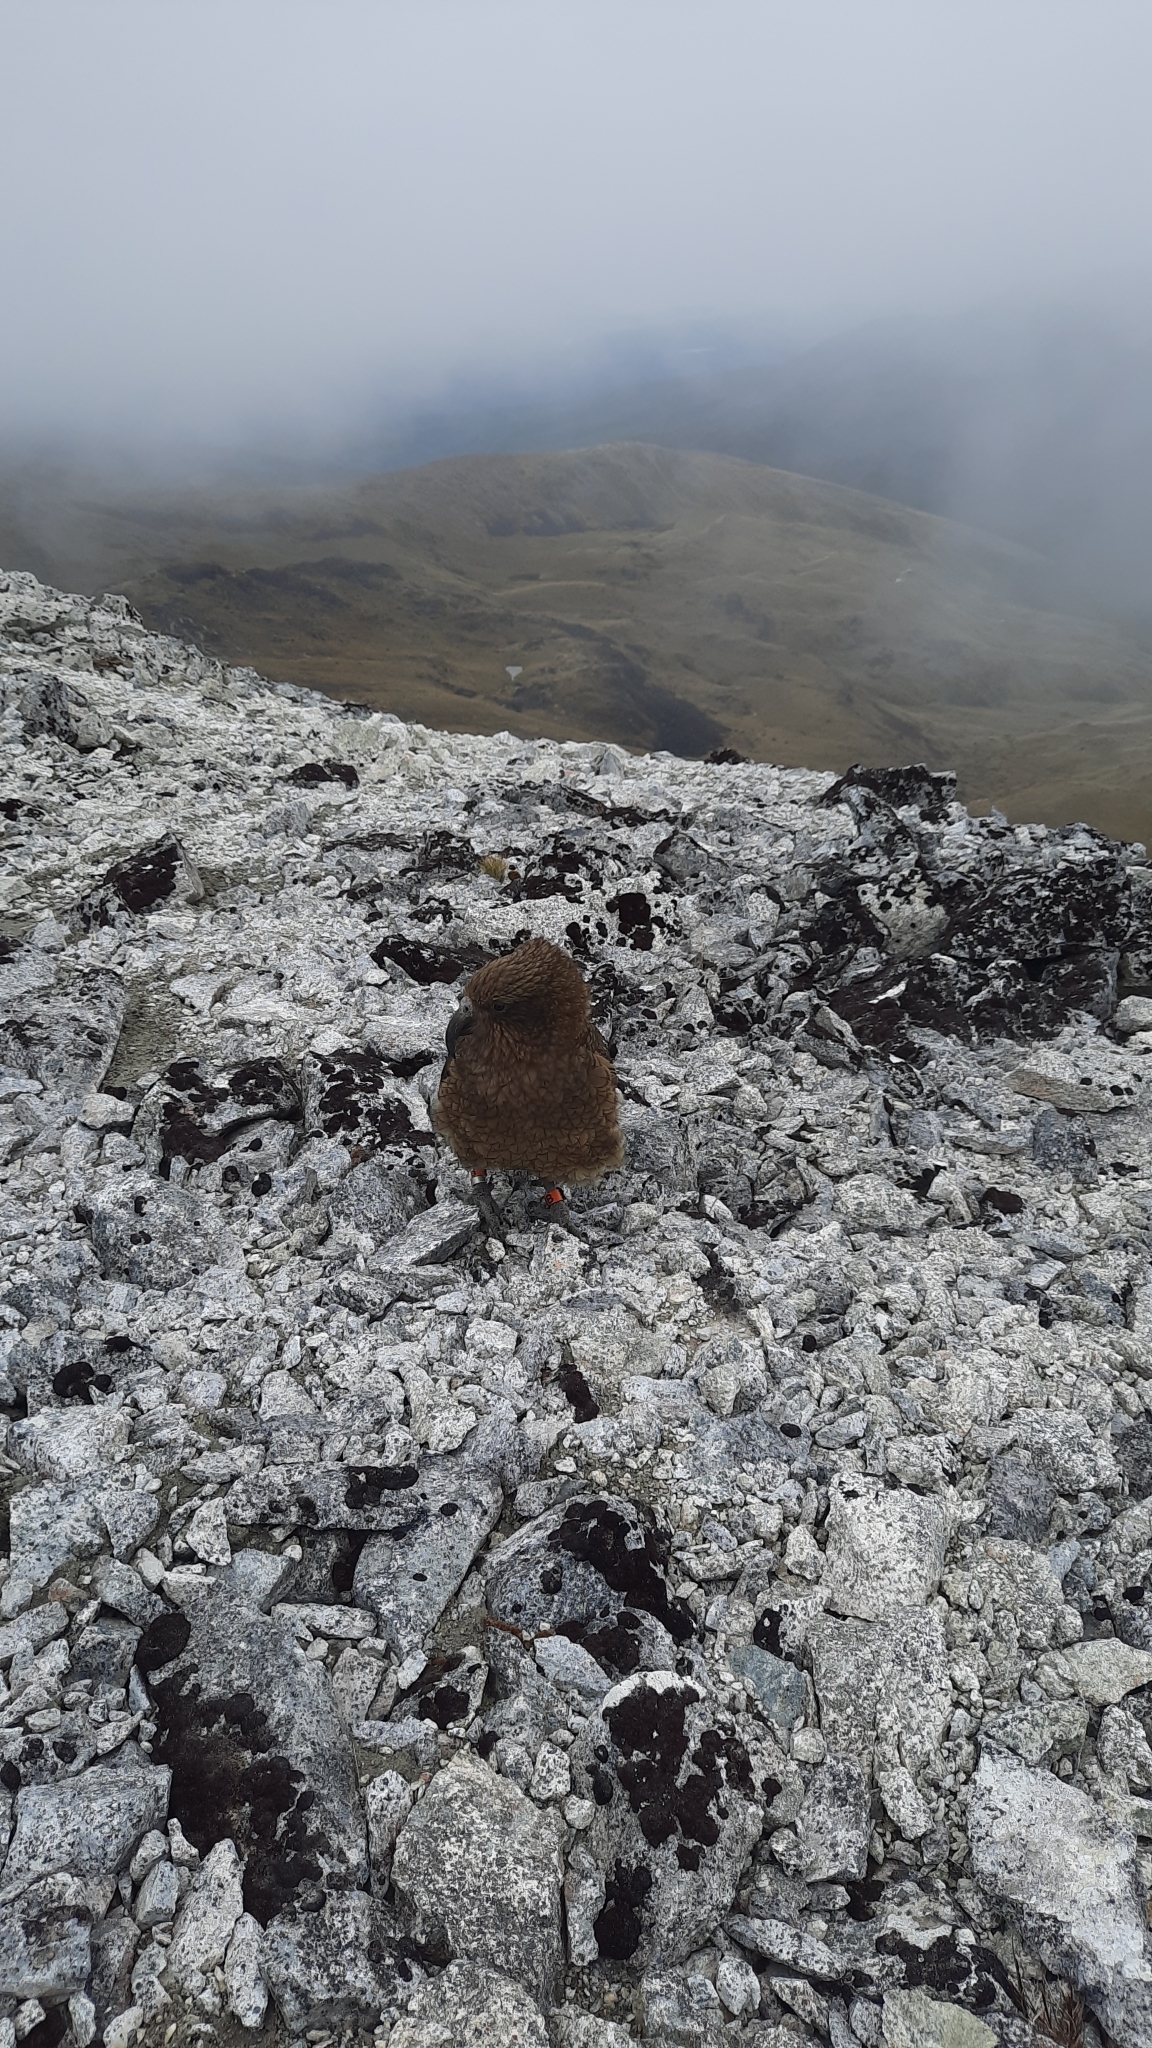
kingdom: Animalia
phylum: Chordata
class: Aves
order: Psittaciformes
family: Psittacidae
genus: Nestor
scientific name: Nestor notabilis
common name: Kea
